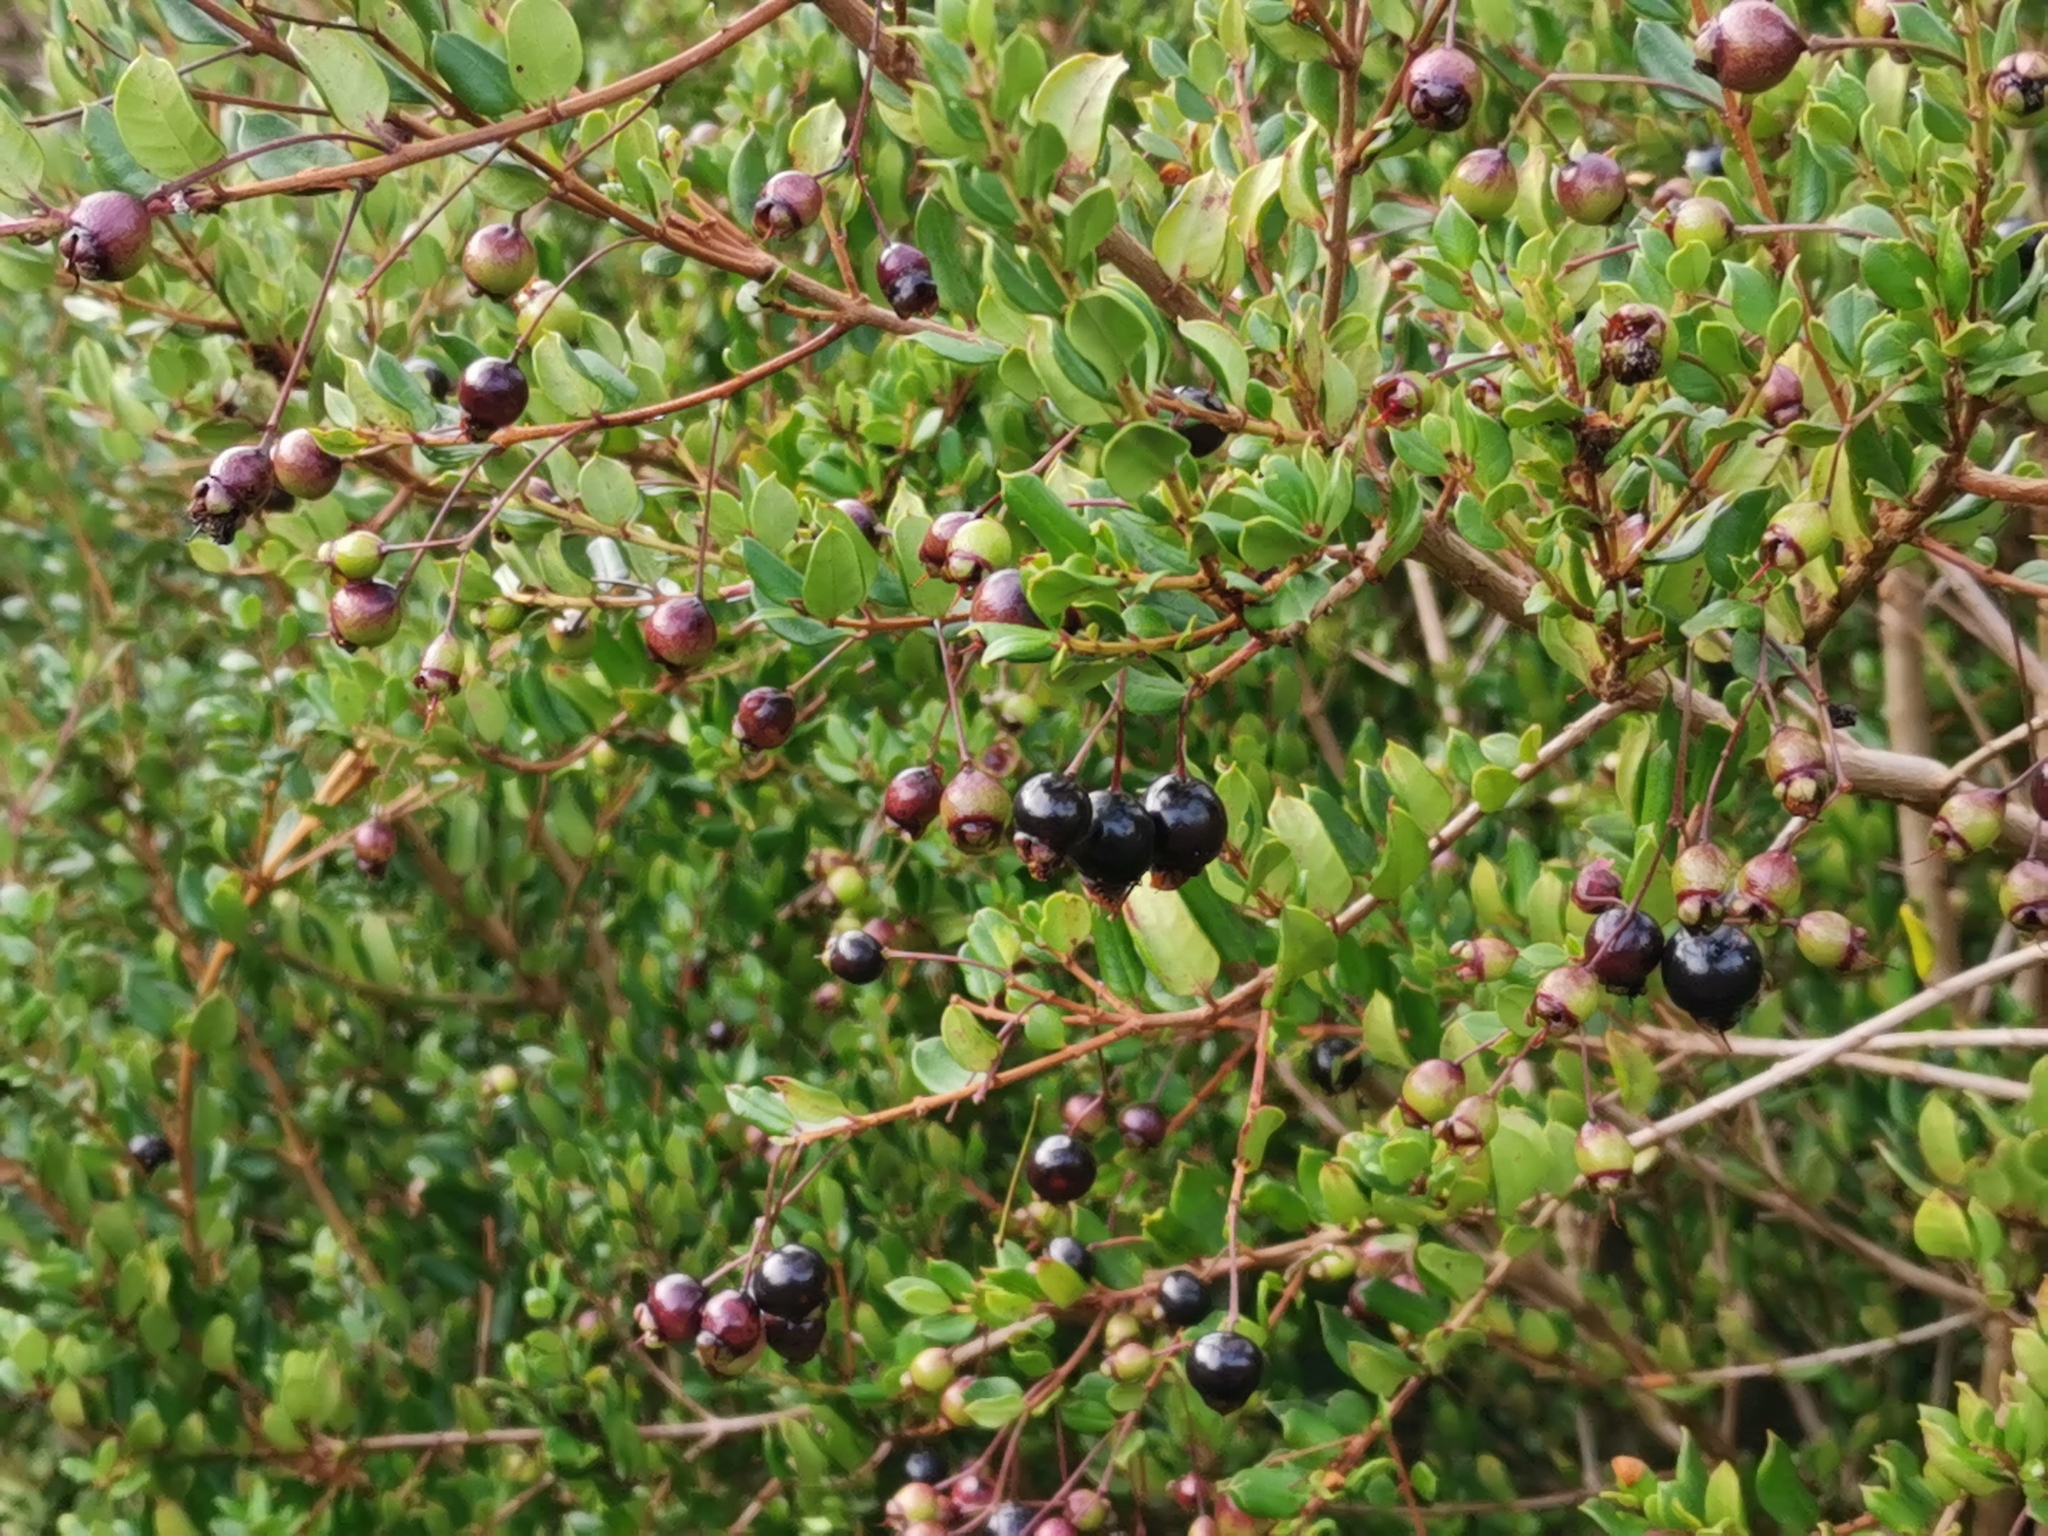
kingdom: Plantae
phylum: Tracheophyta
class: Magnoliopsida
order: Myrtales
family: Myrtaceae
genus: Luma
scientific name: Luma apiculata
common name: Chilean myrtle
